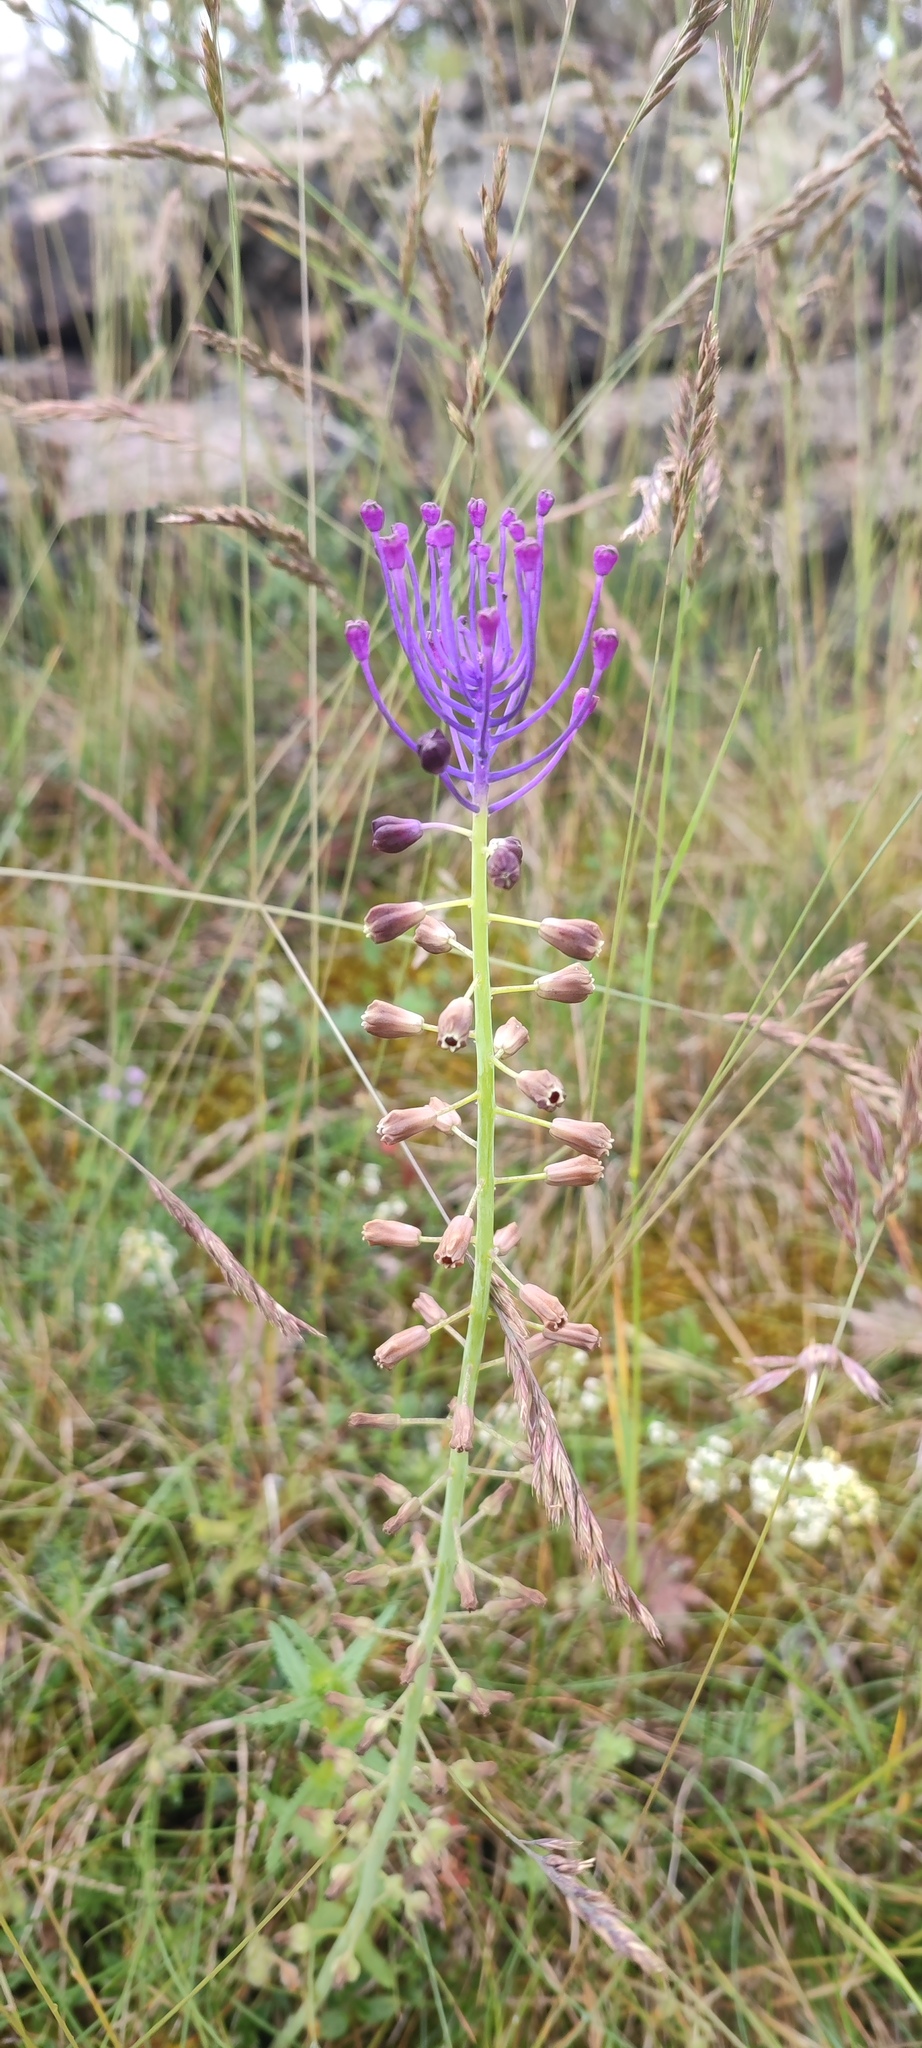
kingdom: Plantae
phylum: Tracheophyta
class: Liliopsida
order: Asparagales
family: Asparagaceae
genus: Muscari
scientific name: Muscari comosum
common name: Tassel hyacinth
